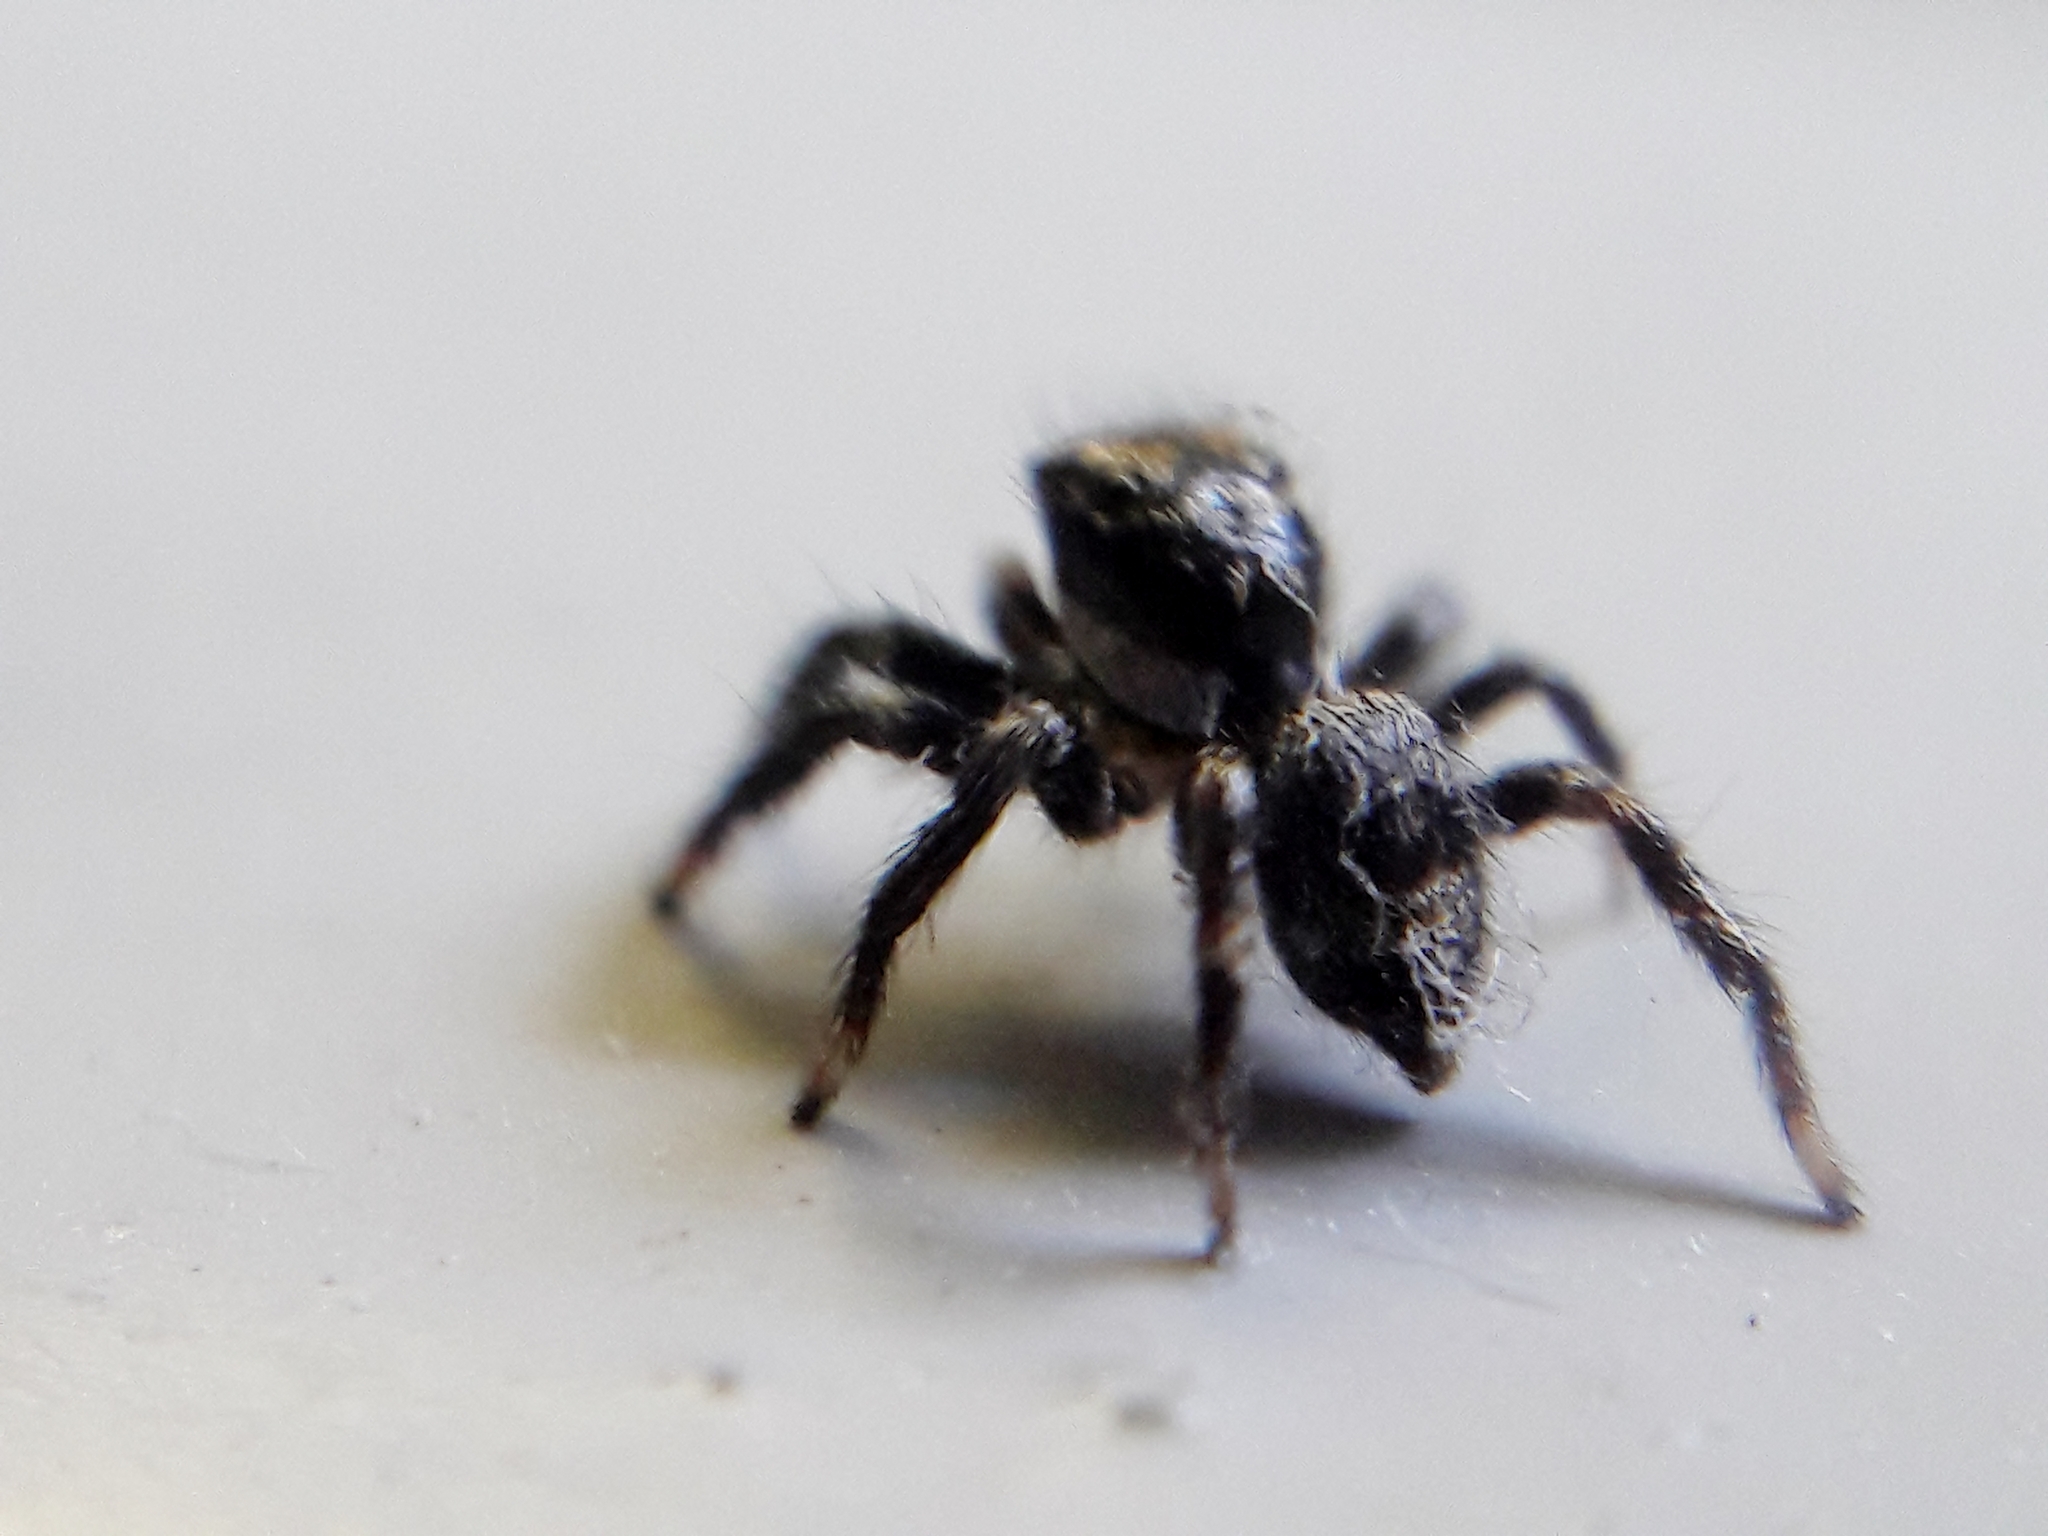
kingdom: Animalia
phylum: Arthropoda
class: Arachnida
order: Araneae
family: Salticidae
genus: Corythalia
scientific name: Corythalia conferta
